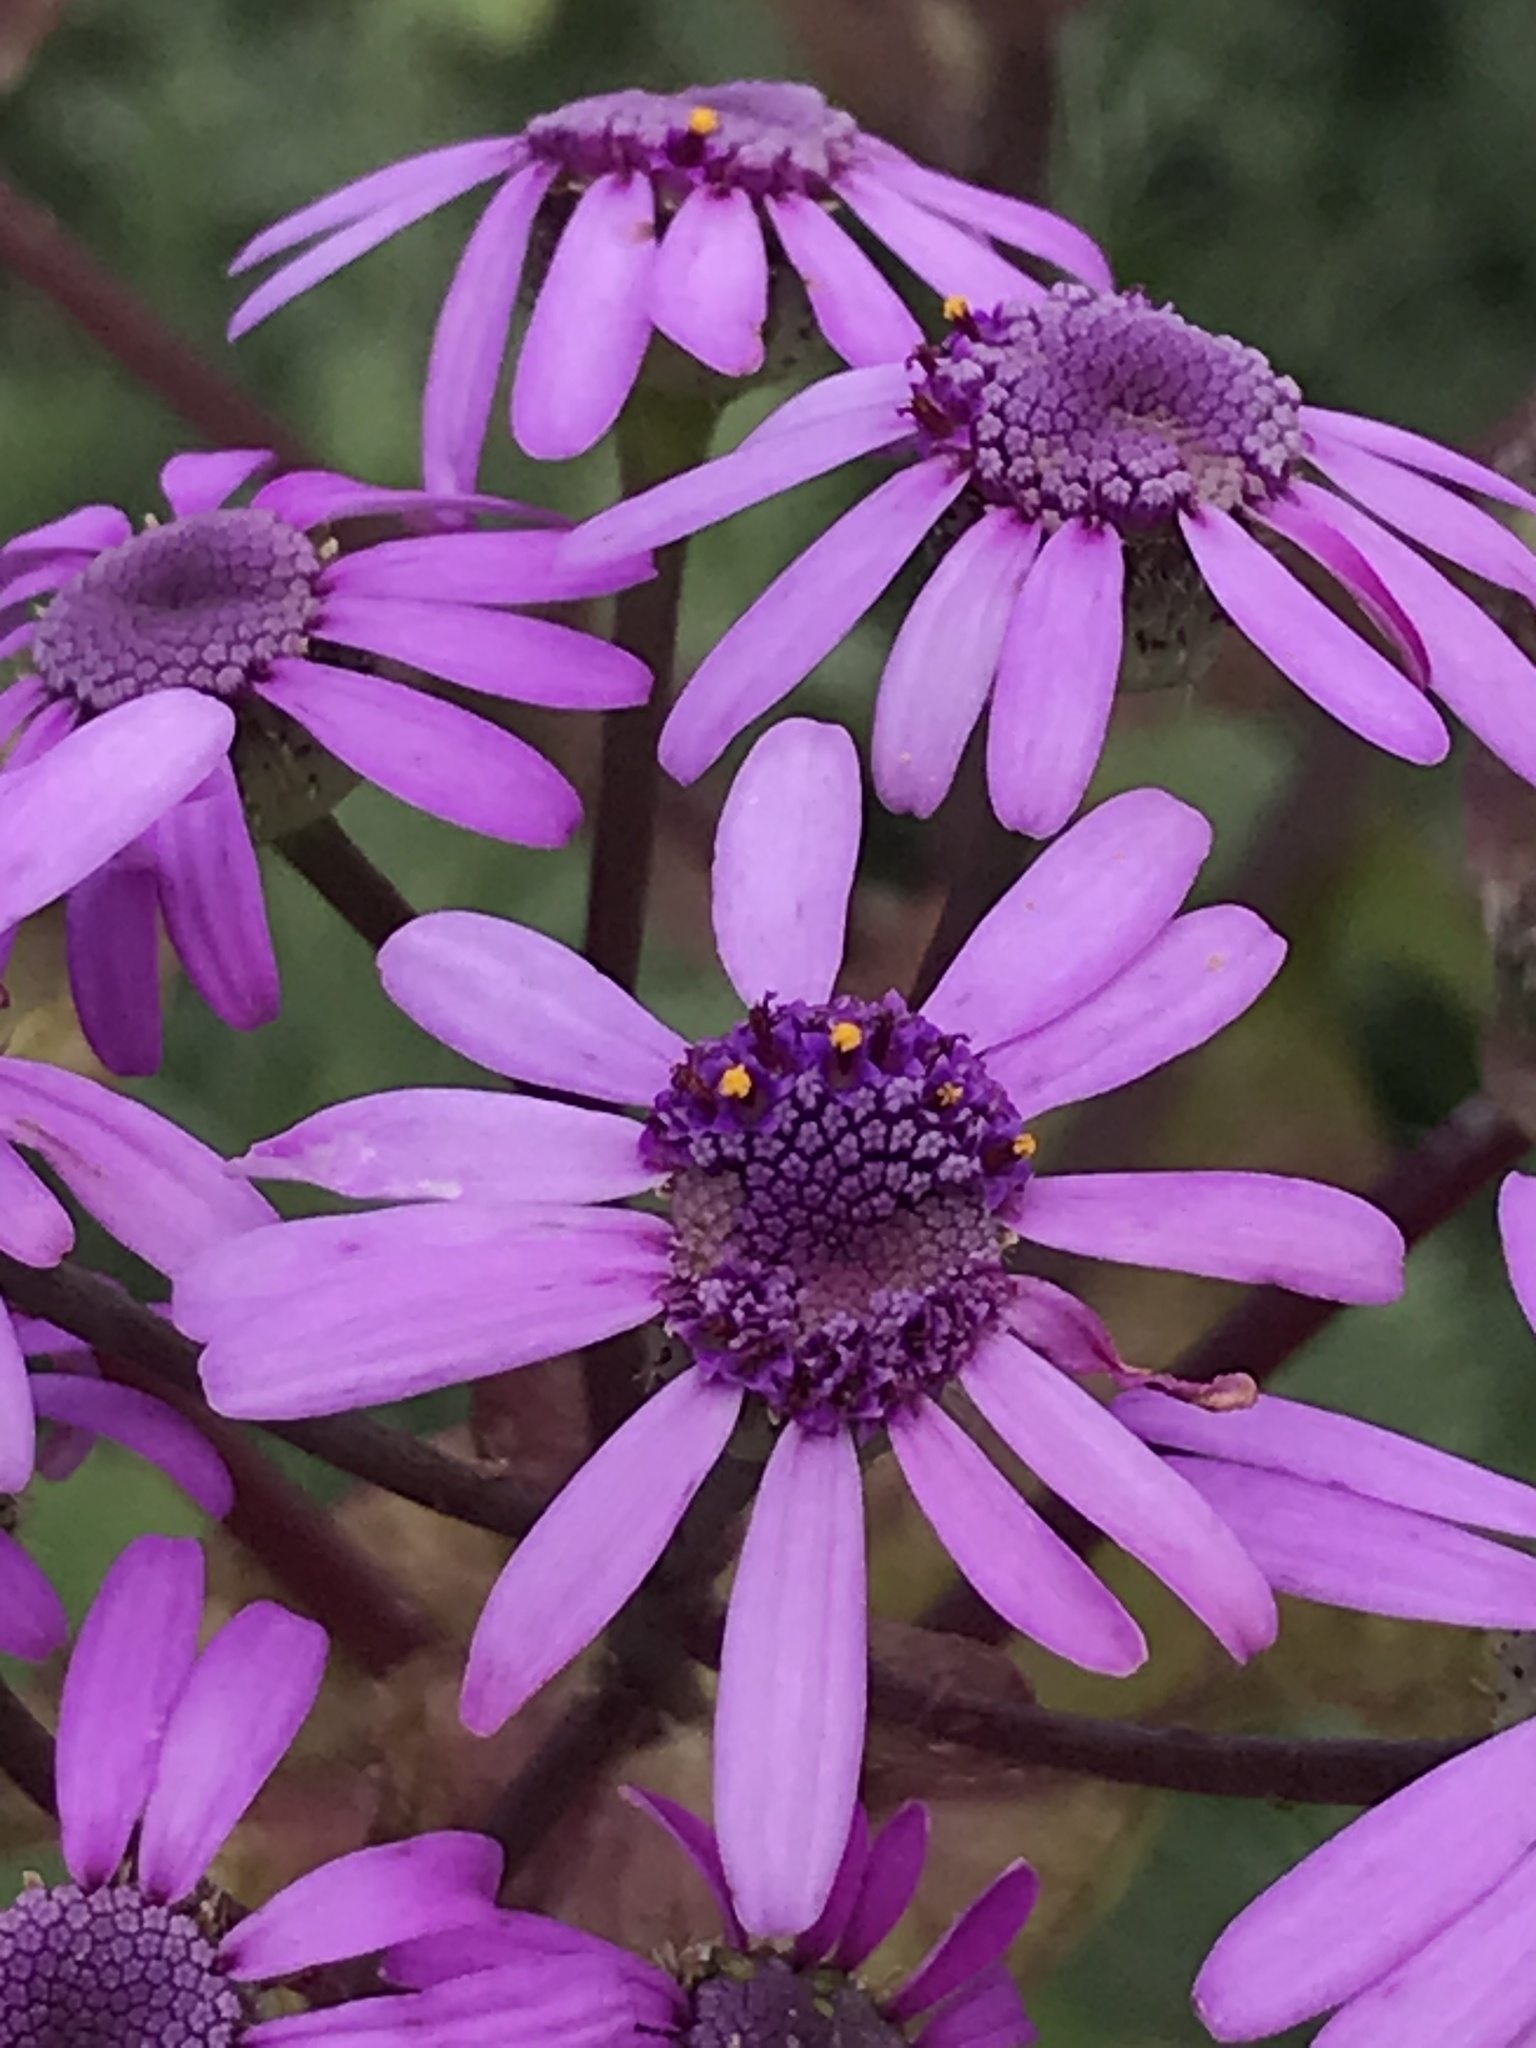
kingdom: Plantae
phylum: Tracheophyta
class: Magnoliopsida
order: Asterales
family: Asteraceae
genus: Pericallis
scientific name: Pericallis webbii
